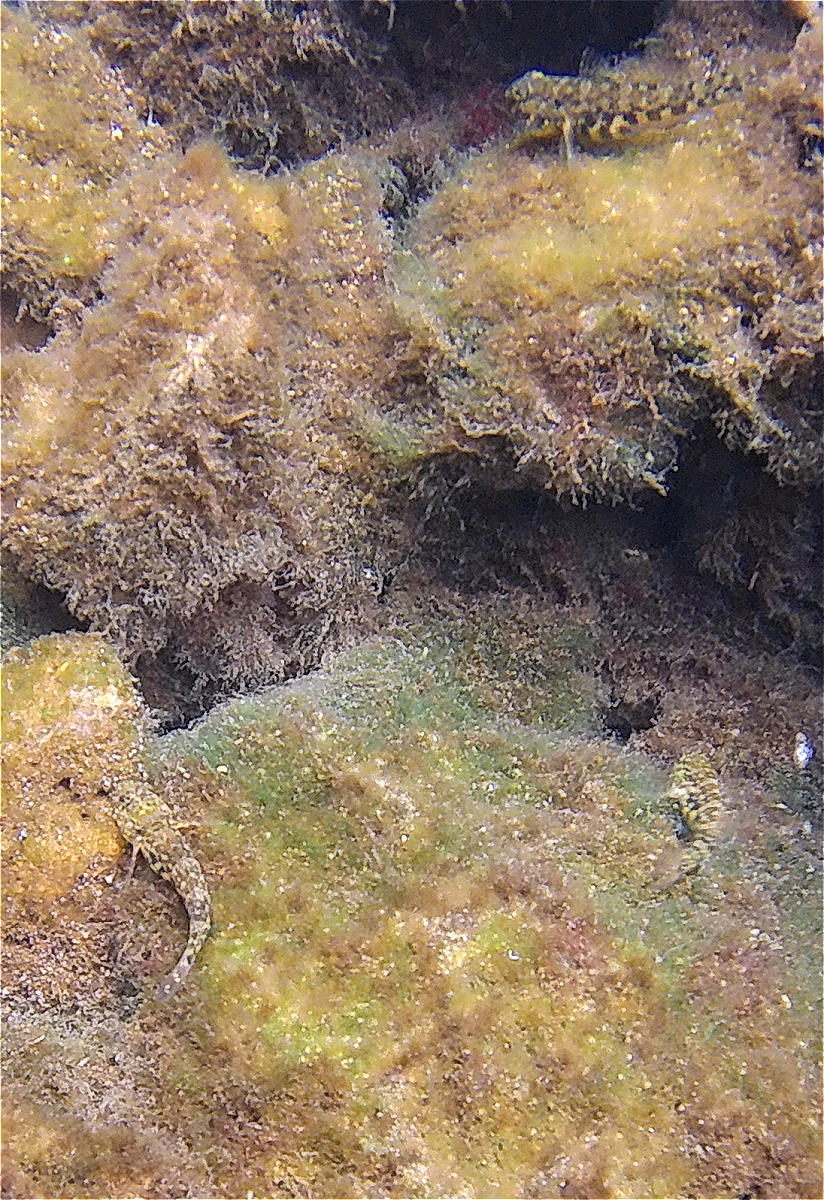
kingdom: Animalia
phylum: Chordata
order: Perciformes
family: Gobiidae
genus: Bathygobius
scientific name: Bathygobius lineatus
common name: Southern frillfin
